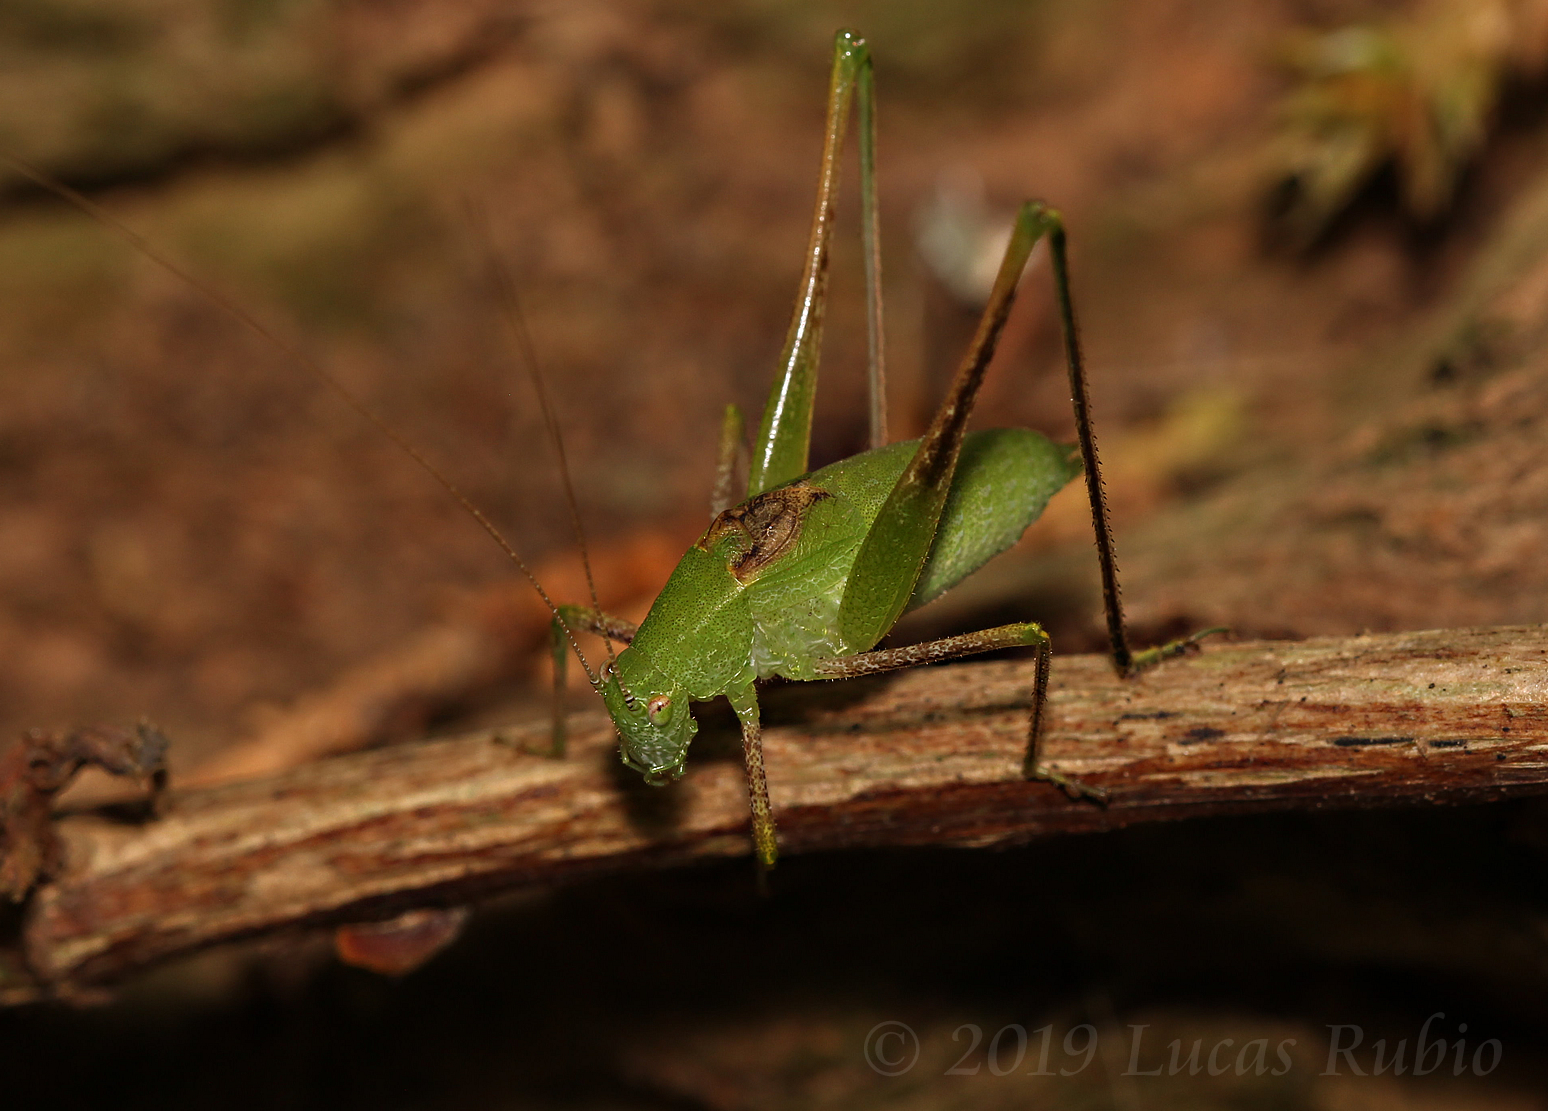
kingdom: Animalia
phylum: Arthropoda
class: Insecta
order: Orthoptera
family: Tettigoniidae
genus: Anisophya
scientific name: Anisophya
